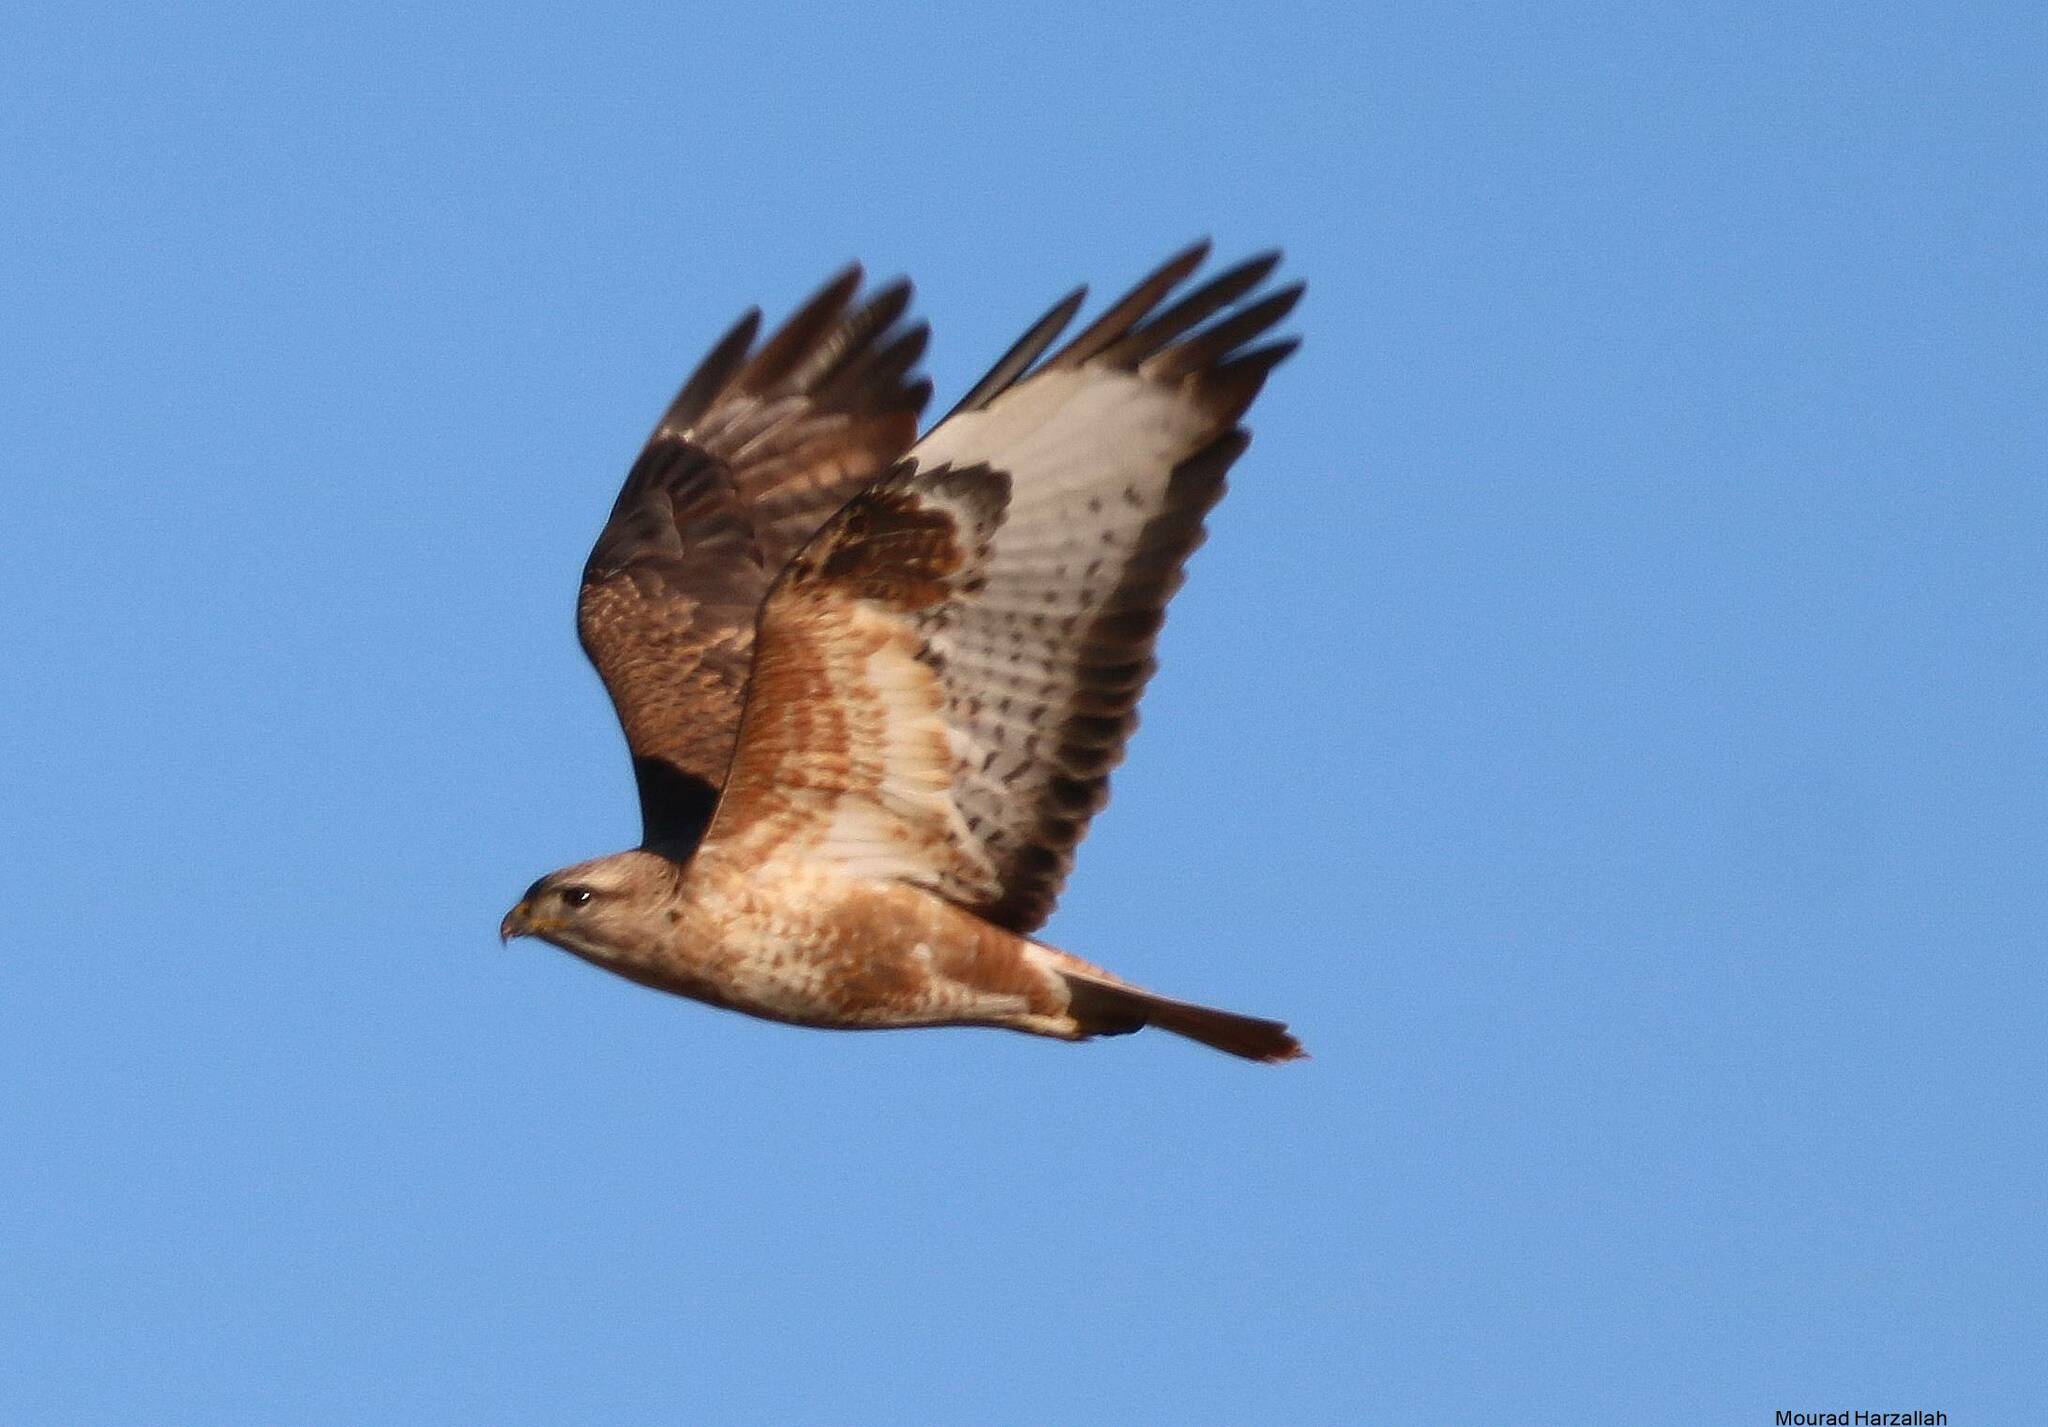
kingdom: Animalia
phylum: Chordata
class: Aves
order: Accipitriformes
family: Accipitridae
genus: Buteo
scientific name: Buteo rufinus
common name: Long-legged buzzard
